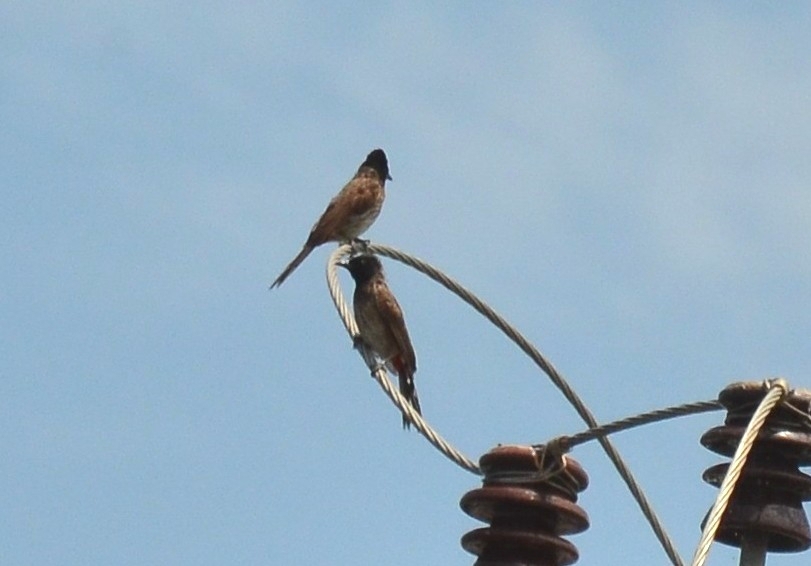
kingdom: Animalia
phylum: Chordata
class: Aves
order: Passeriformes
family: Pycnonotidae
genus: Pycnonotus
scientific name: Pycnonotus cafer
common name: Red-vented bulbul
